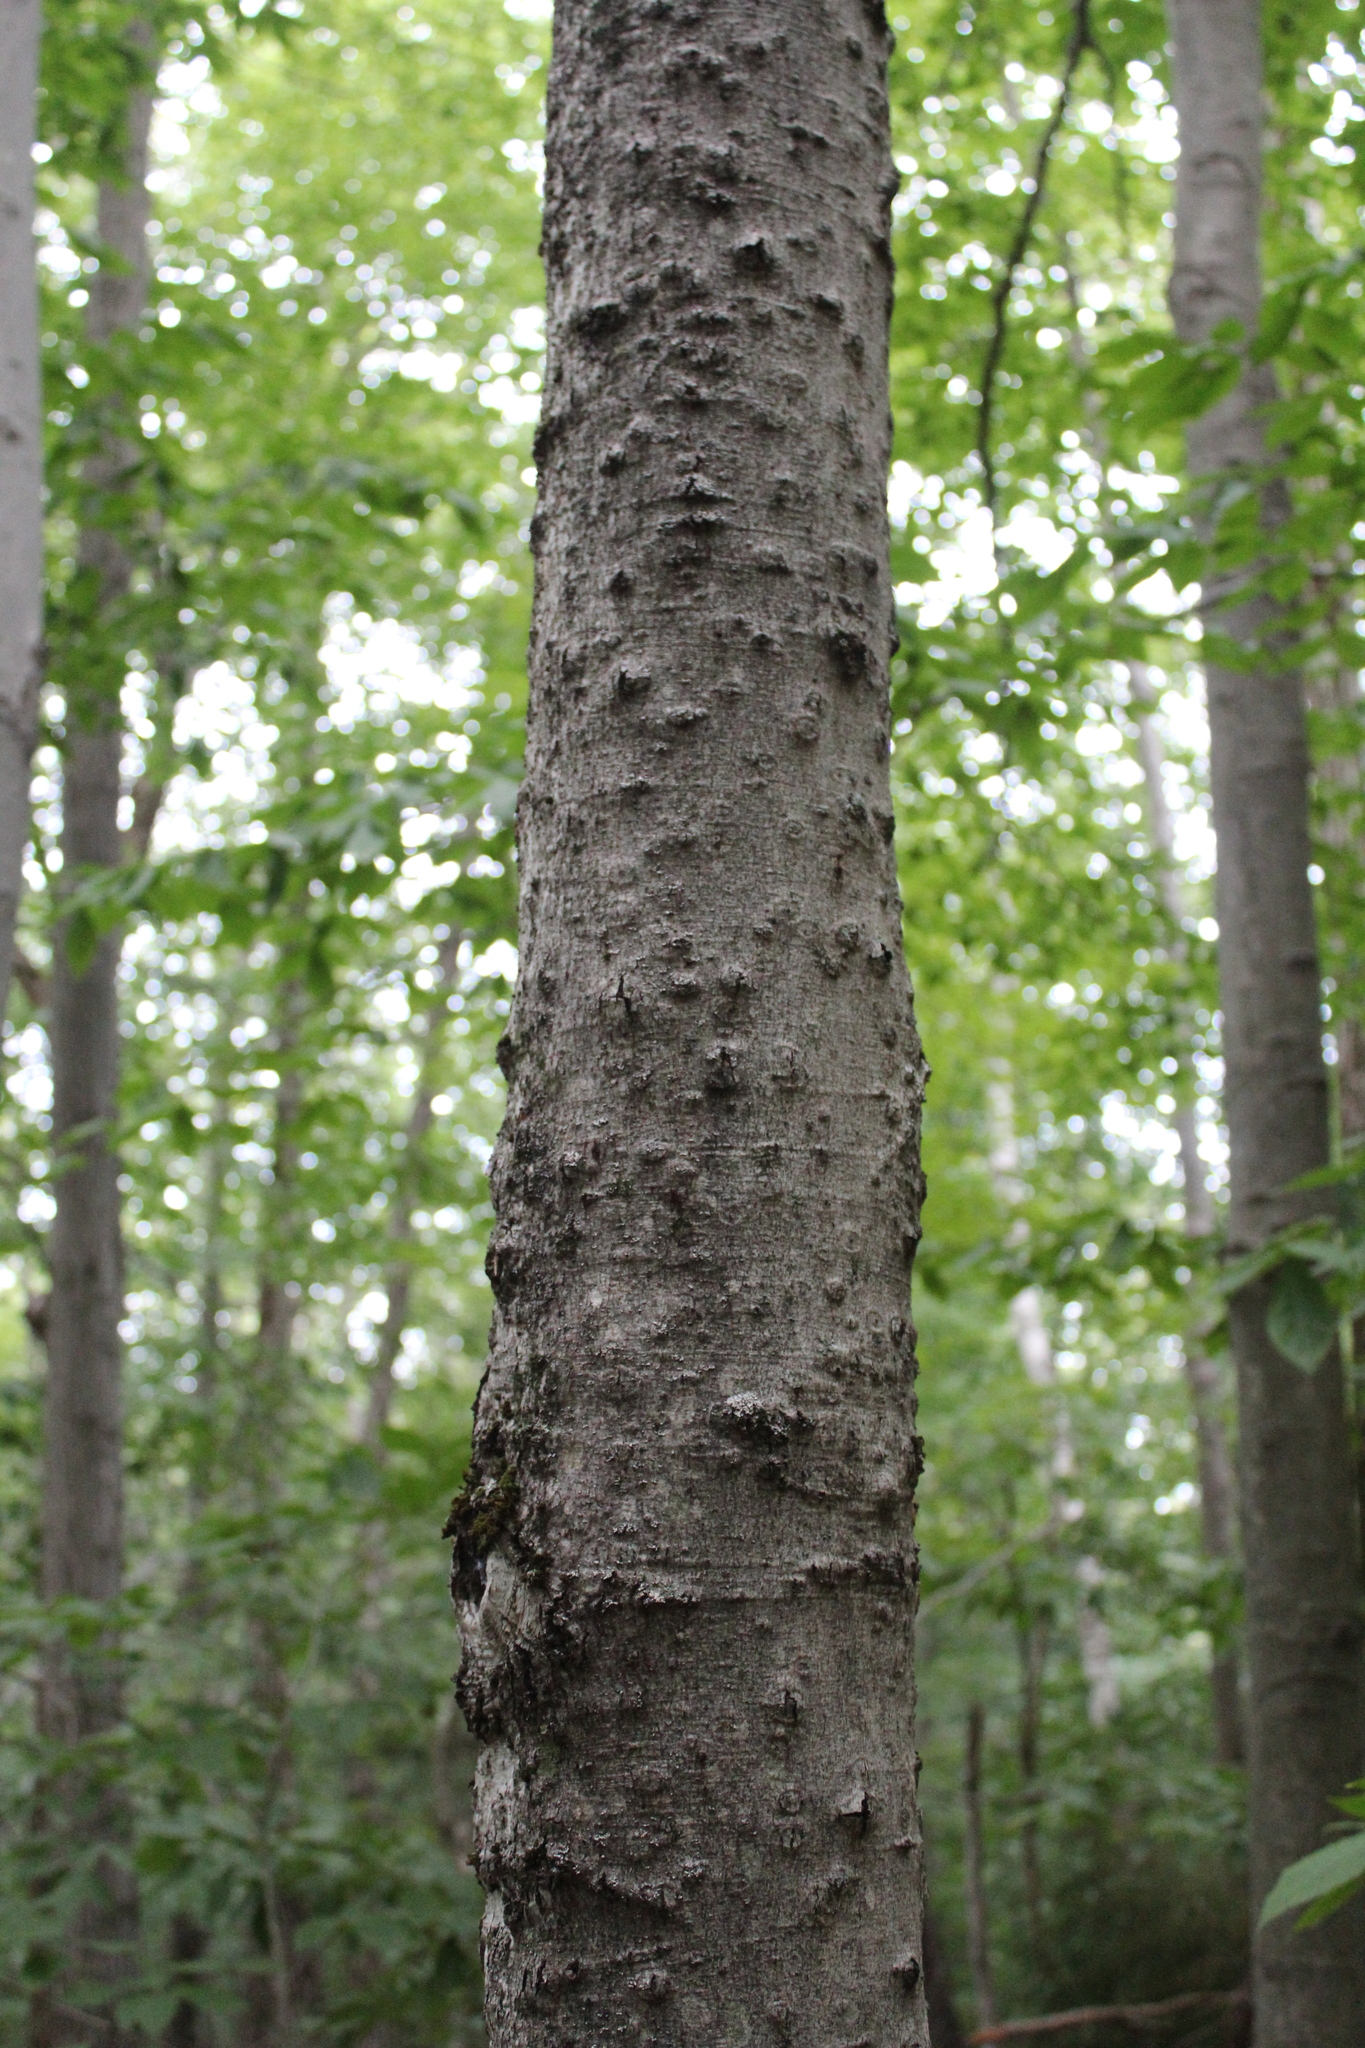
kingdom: Plantae
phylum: Tracheophyta
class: Magnoliopsida
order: Fagales
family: Fagaceae
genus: Fagus
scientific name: Fagus grandifolia
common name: American beech
